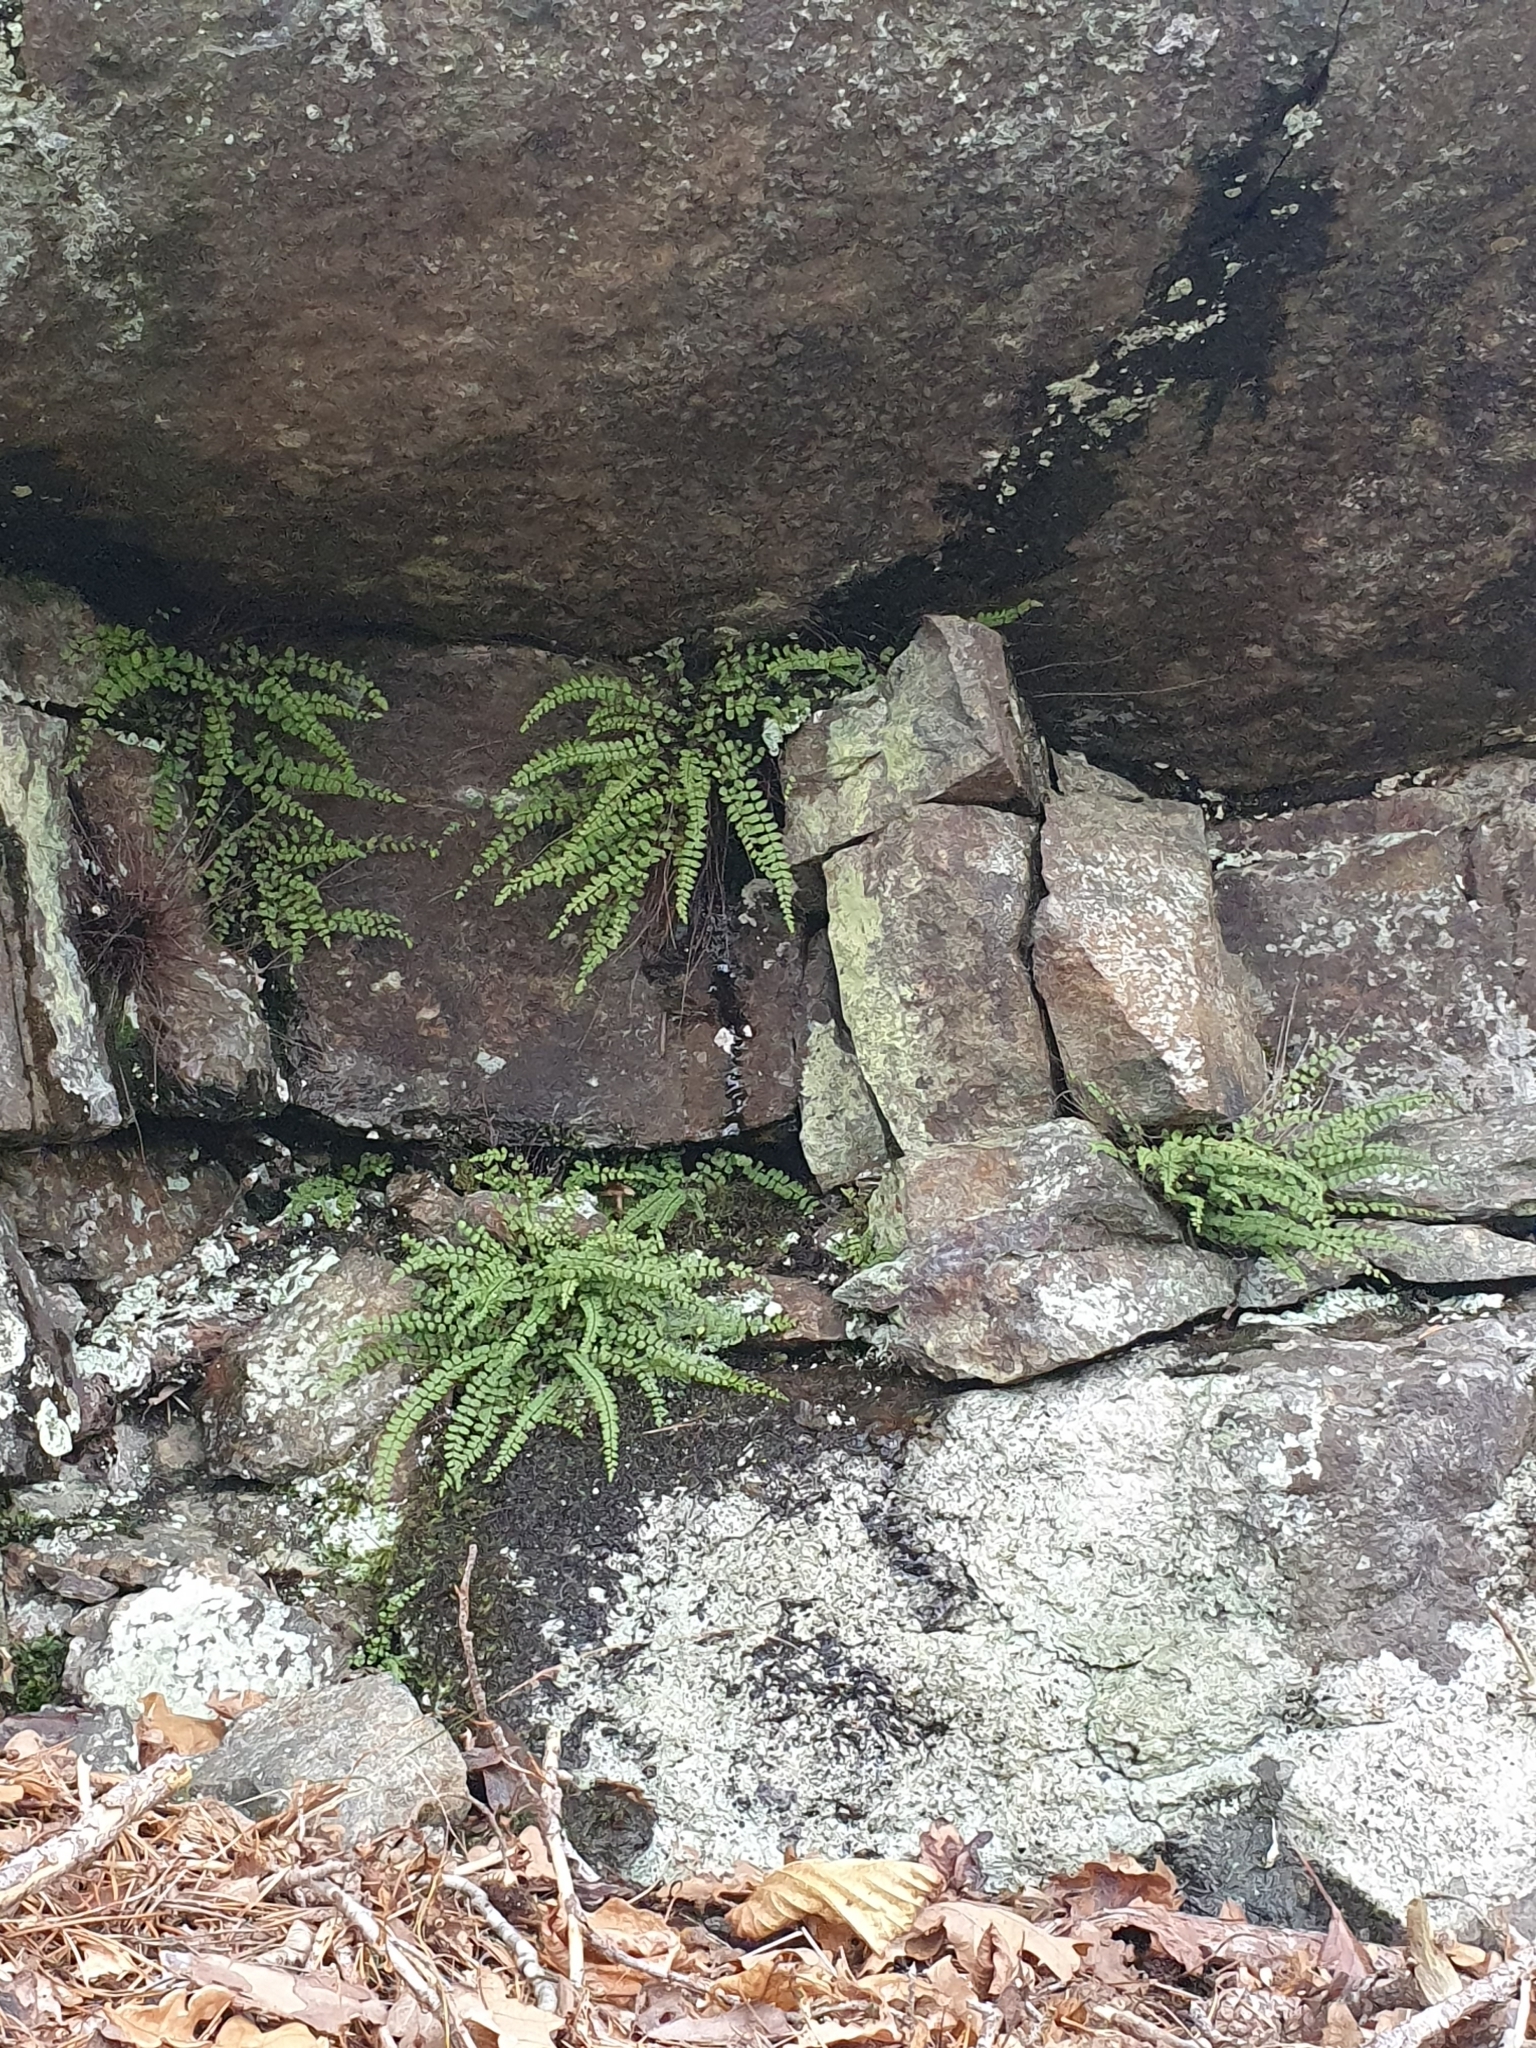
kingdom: Plantae
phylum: Tracheophyta
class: Polypodiopsida
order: Polypodiales
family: Aspleniaceae
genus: Asplenium
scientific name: Asplenium trichomanes
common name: Maidenhair spleenwort
